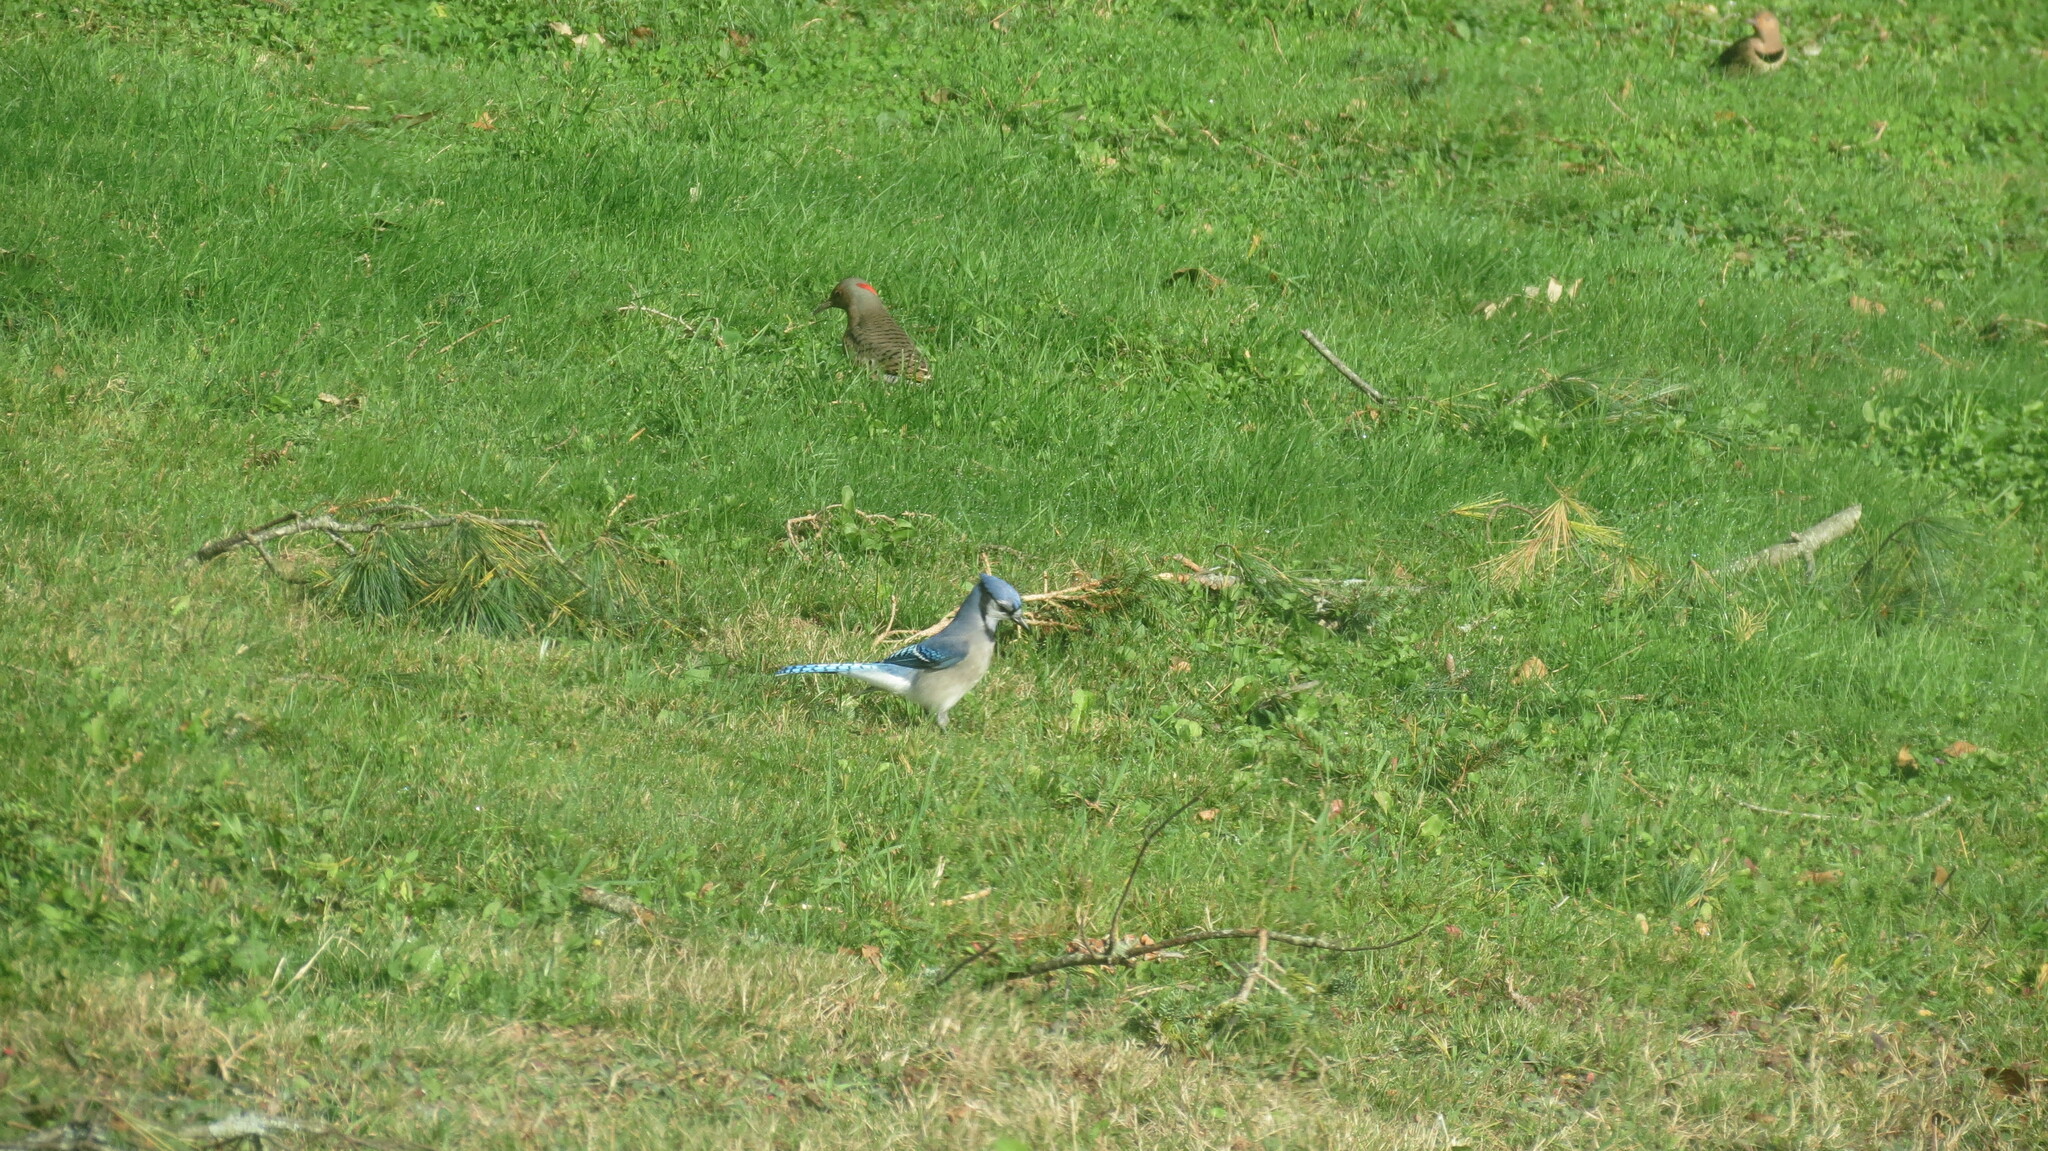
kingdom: Animalia
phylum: Chordata
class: Aves
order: Passeriformes
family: Corvidae
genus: Cyanocitta
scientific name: Cyanocitta cristata
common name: Blue jay
